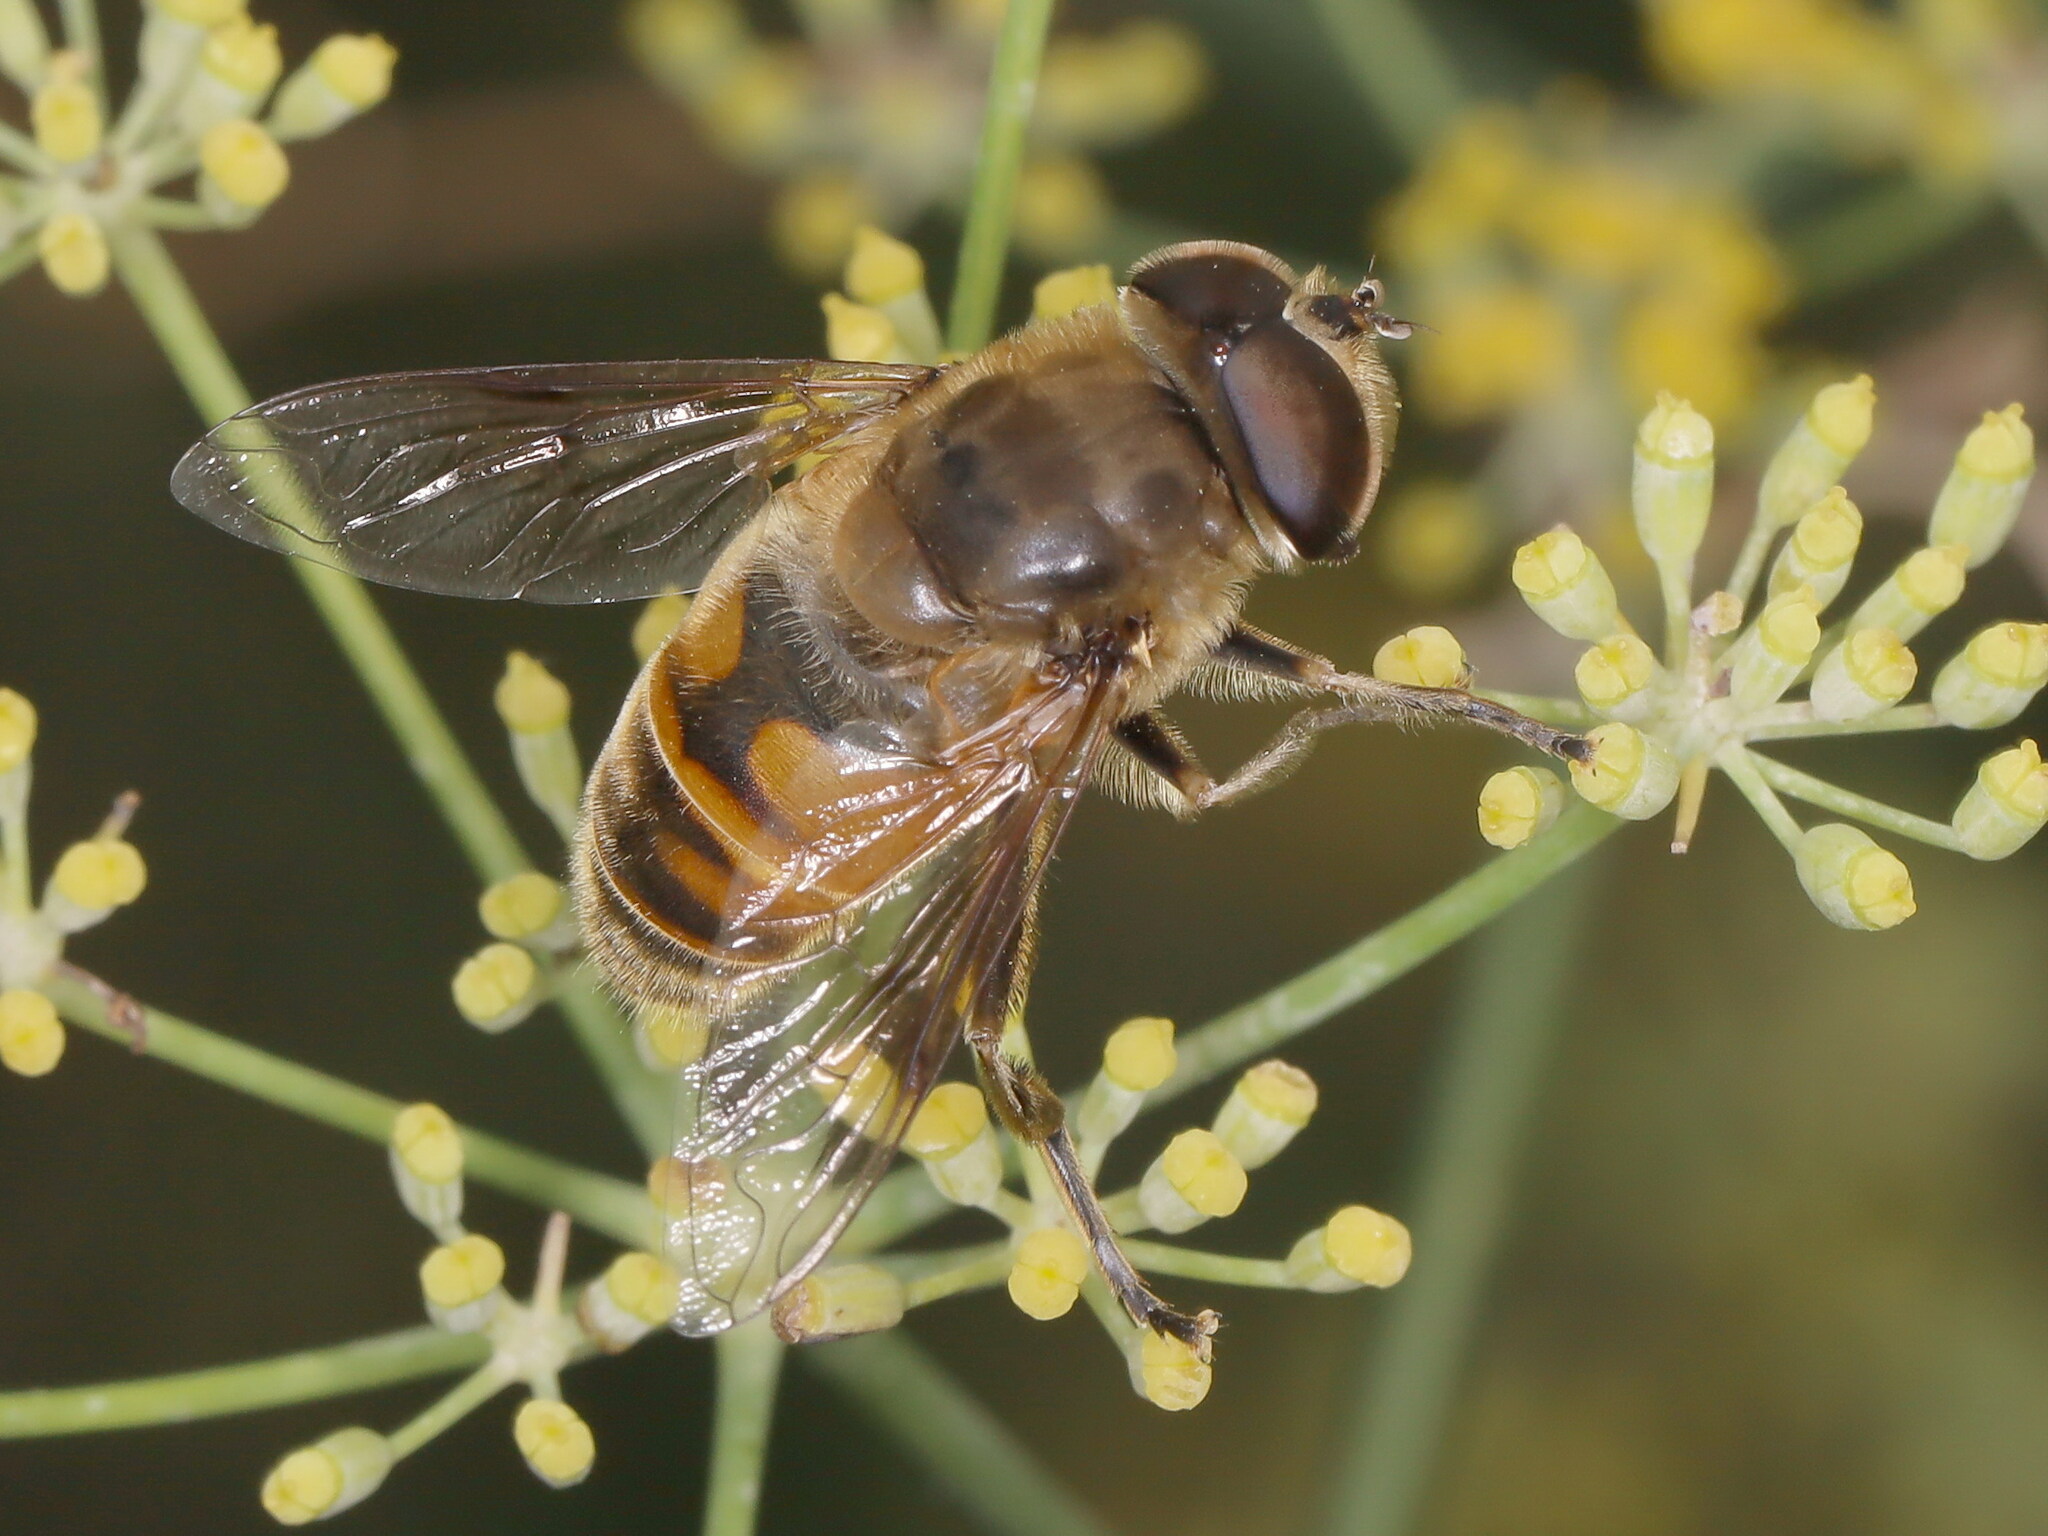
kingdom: Animalia
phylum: Arthropoda
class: Insecta
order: Diptera
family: Syrphidae
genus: Eristalis
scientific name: Eristalis tenax
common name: Drone fly
